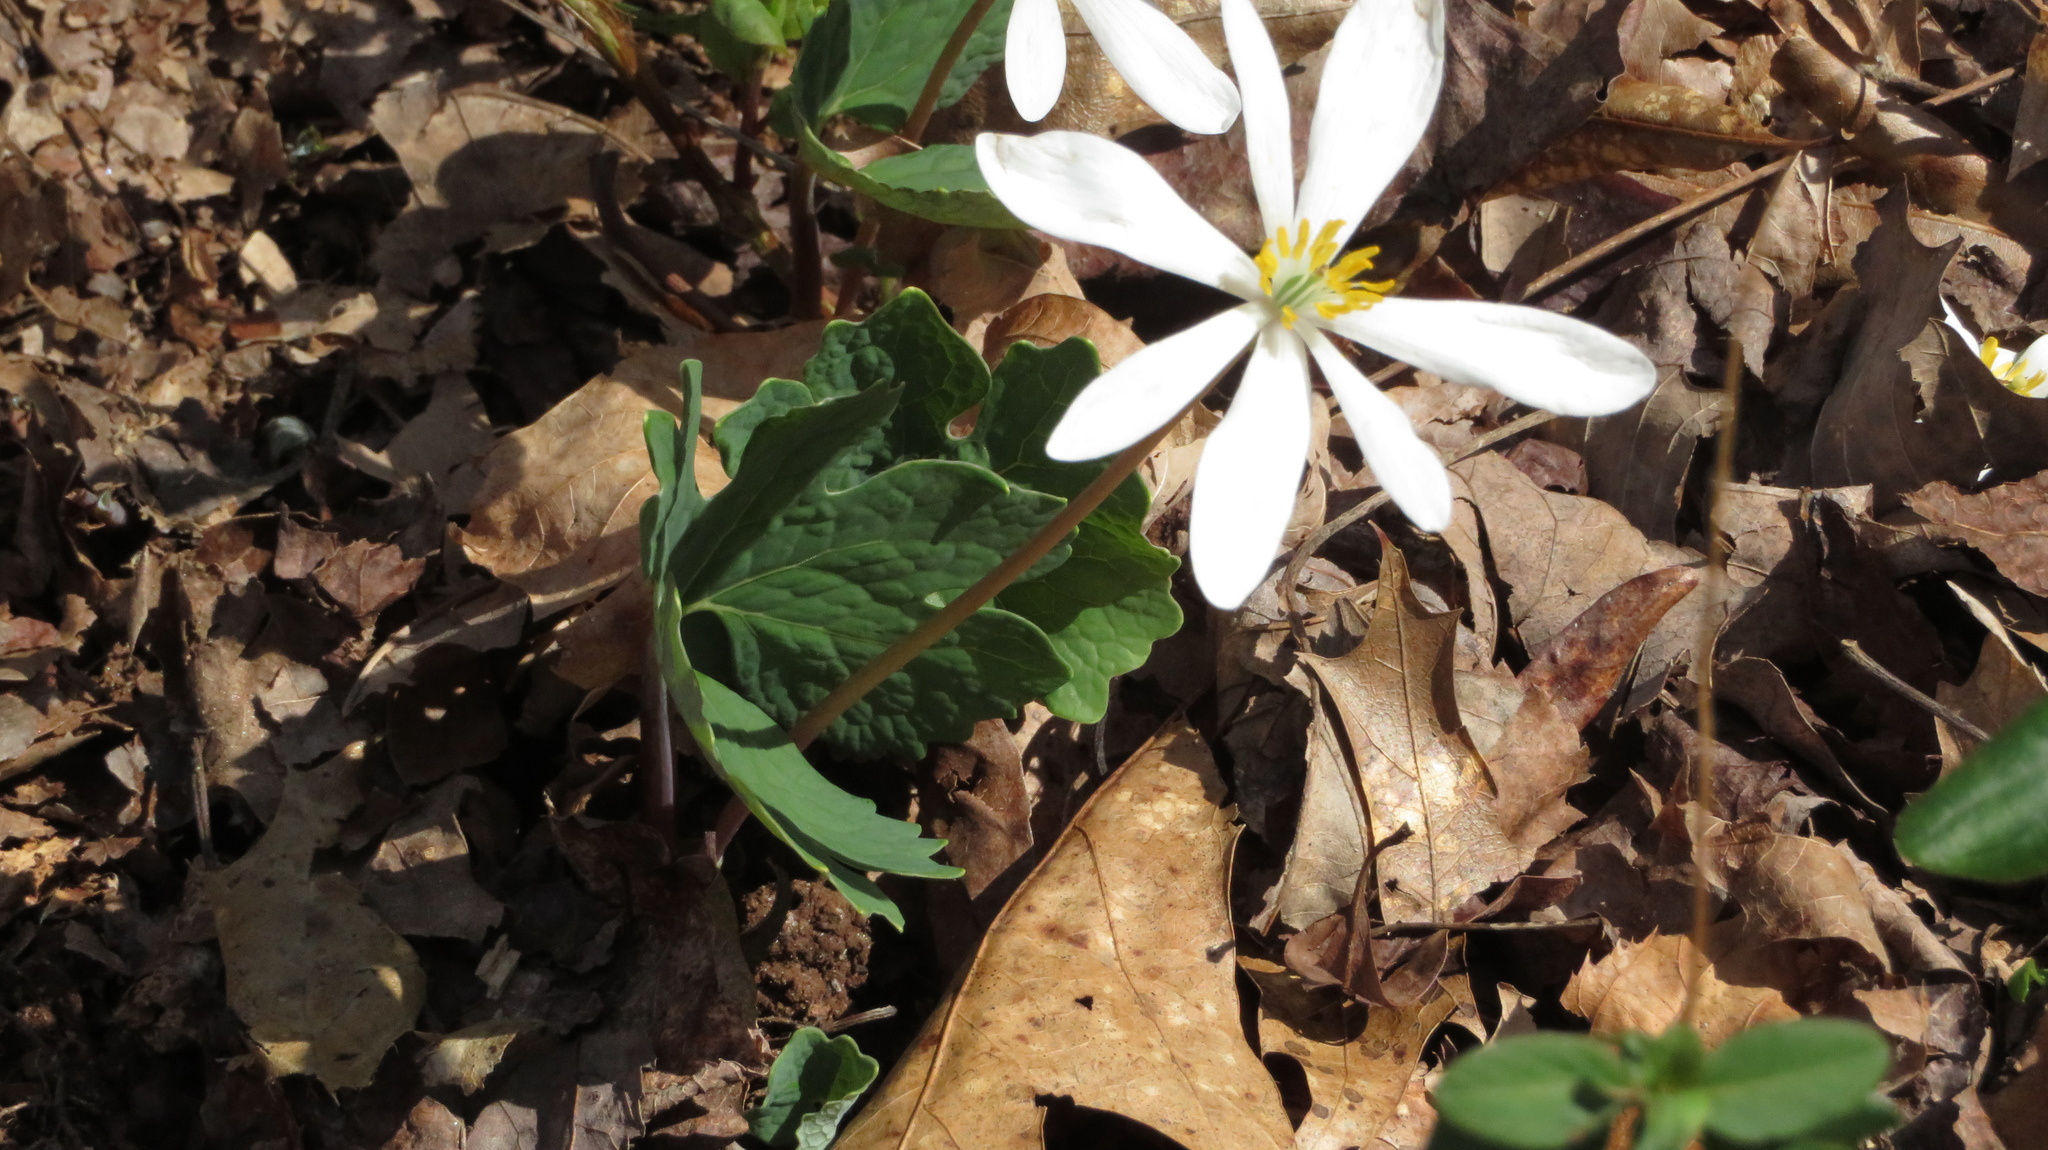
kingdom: Plantae
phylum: Tracheophyta
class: Magnoliopsida
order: Ranunculales
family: Papaveraceae
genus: Sanguinaria
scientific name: Sanguinaria canadensis
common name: Bloodroot
